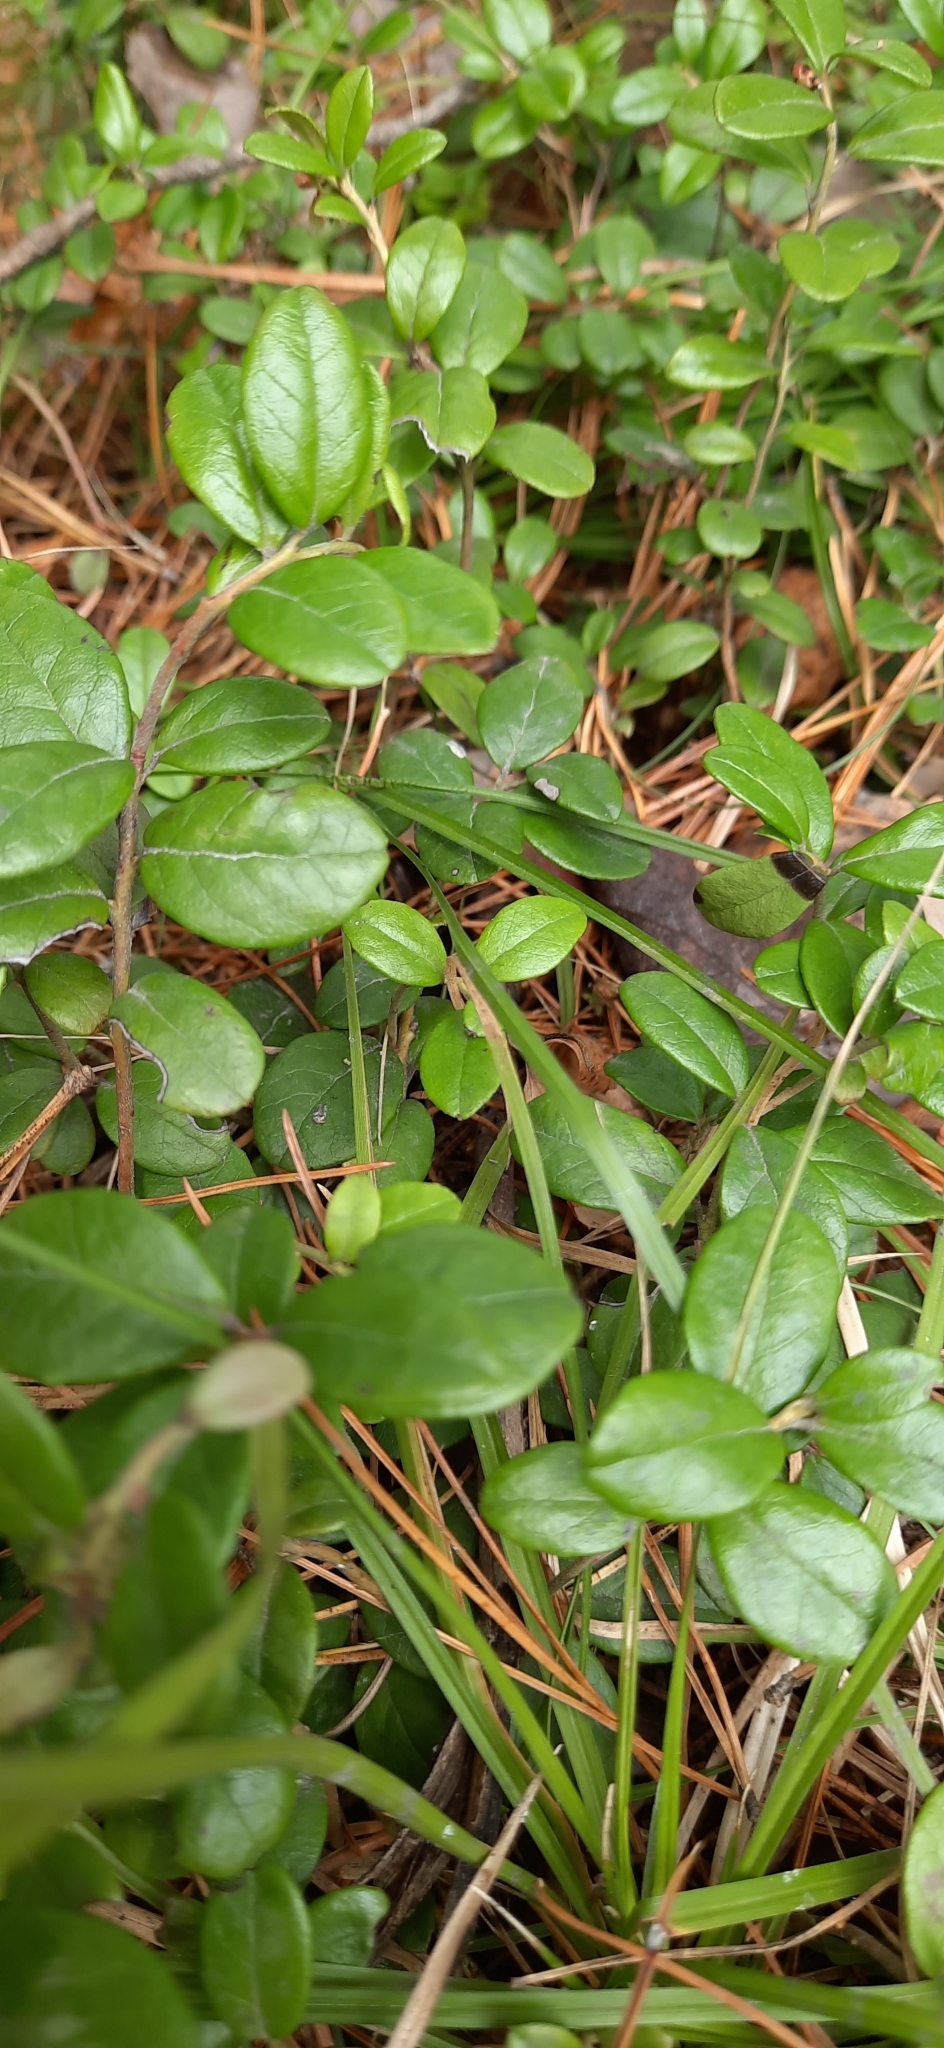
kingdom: Plantae
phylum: Tracheophyta
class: Magnoliopsida
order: Ericales
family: Ericaceae
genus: Vaccinium
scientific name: Vaccinium vitis-idaea
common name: Cowberry
